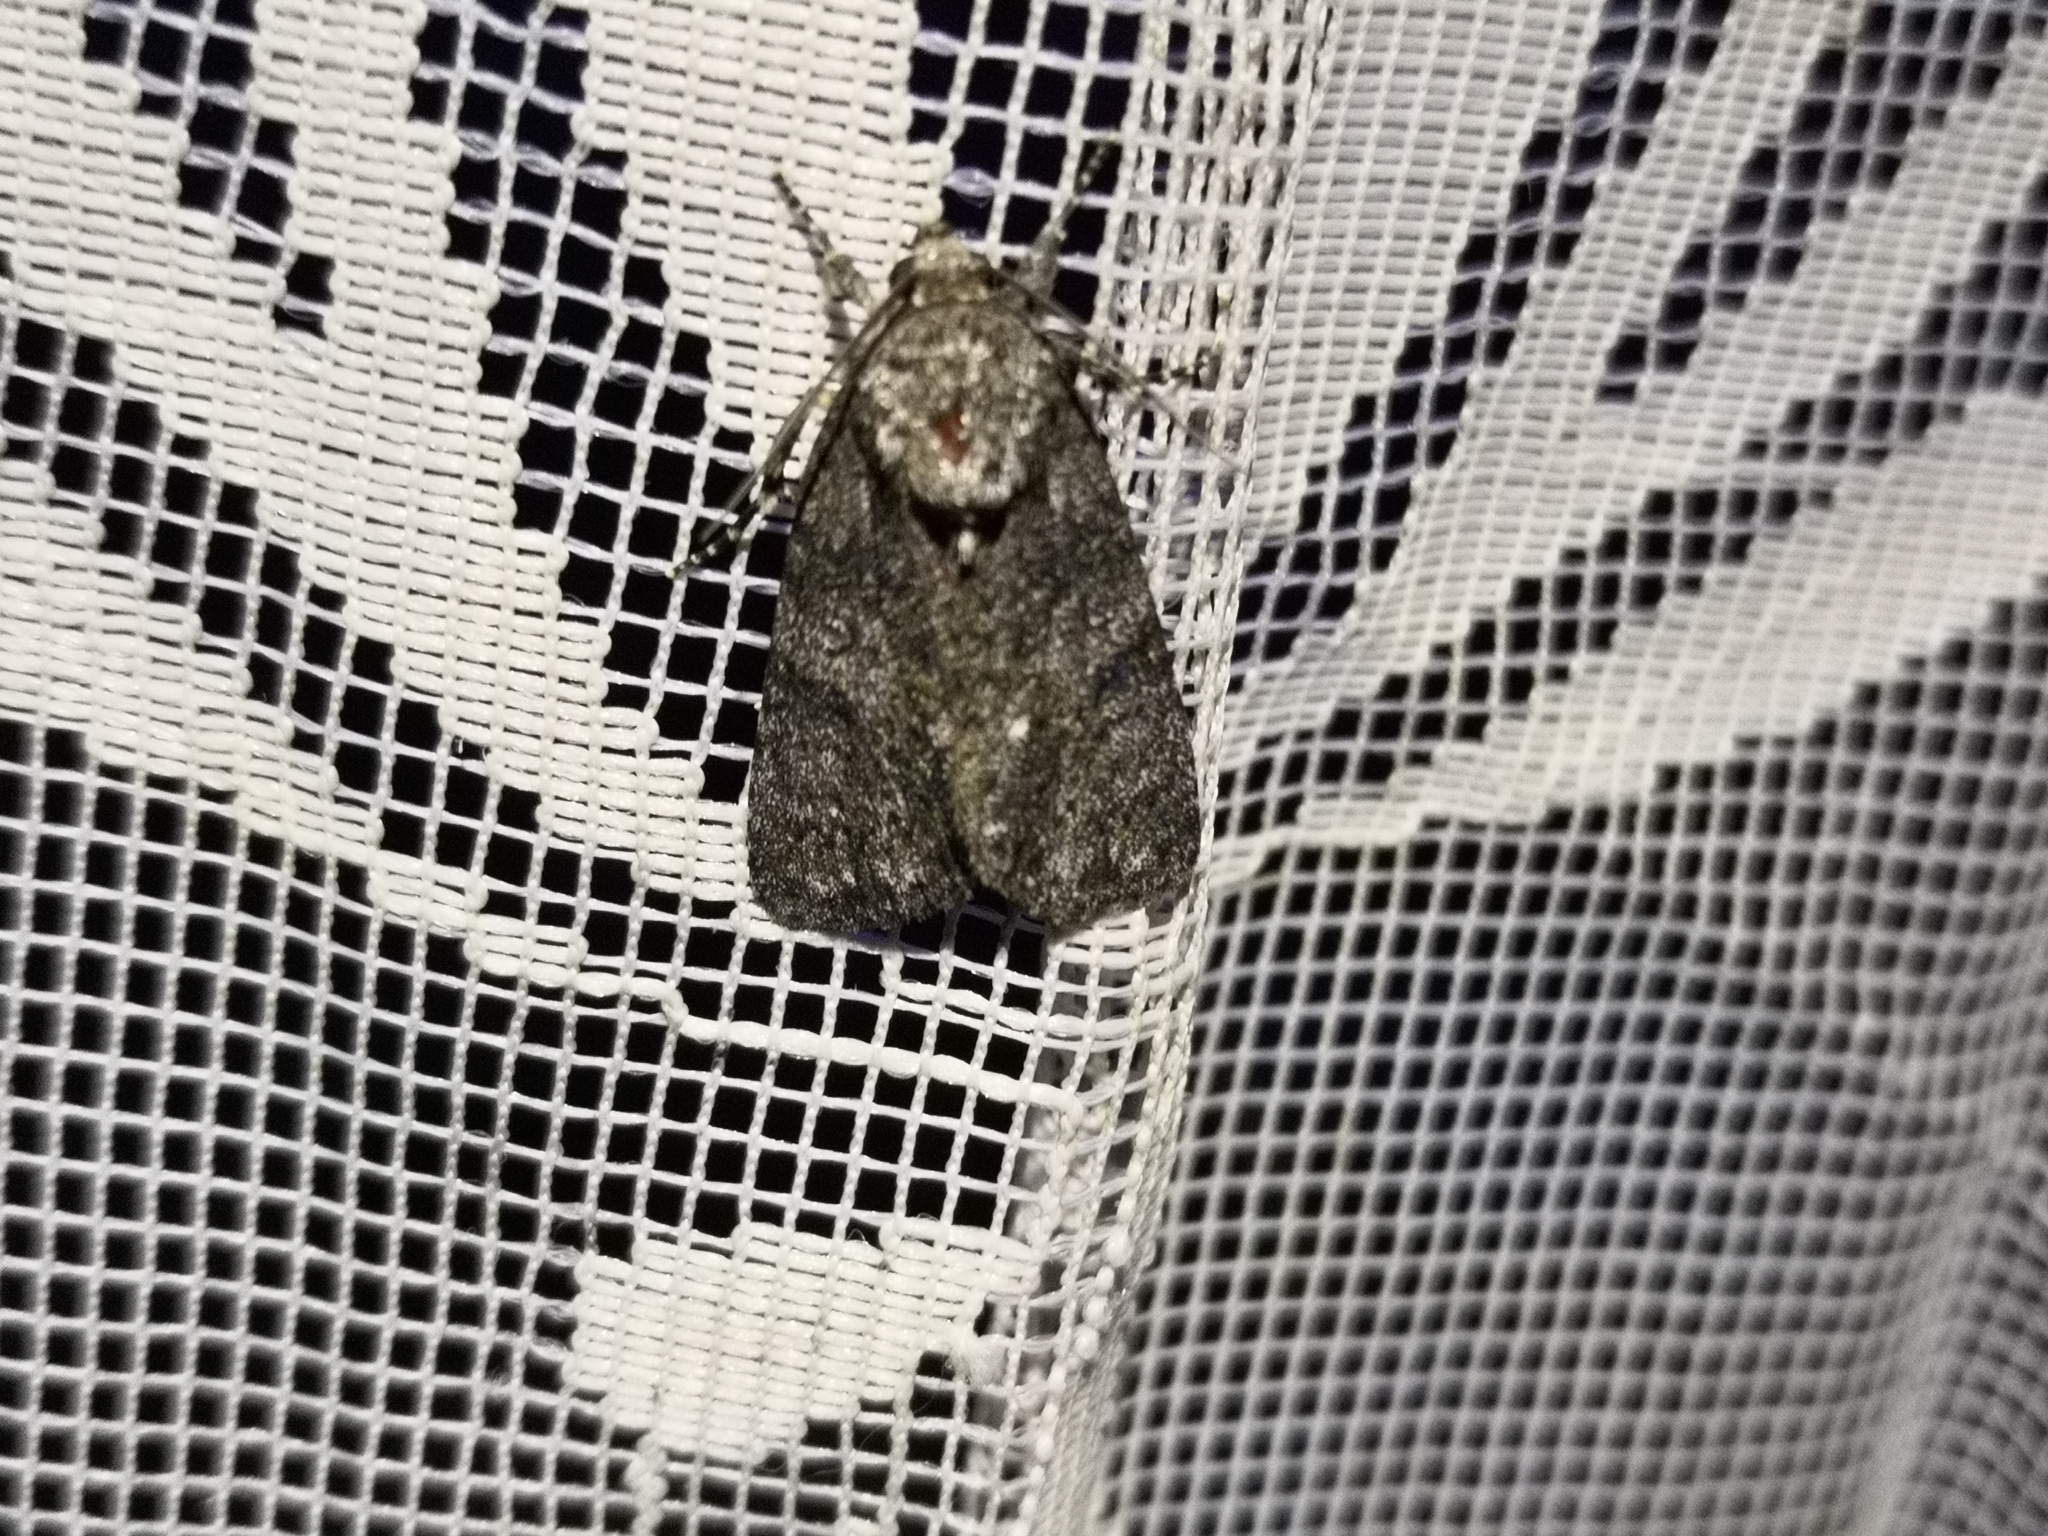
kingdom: Animalia
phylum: Arthropoda
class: Insecta
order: Lepidoptera
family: Noctuidae
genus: Acronicta
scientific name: Acronicta rumicis
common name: Knot grass
